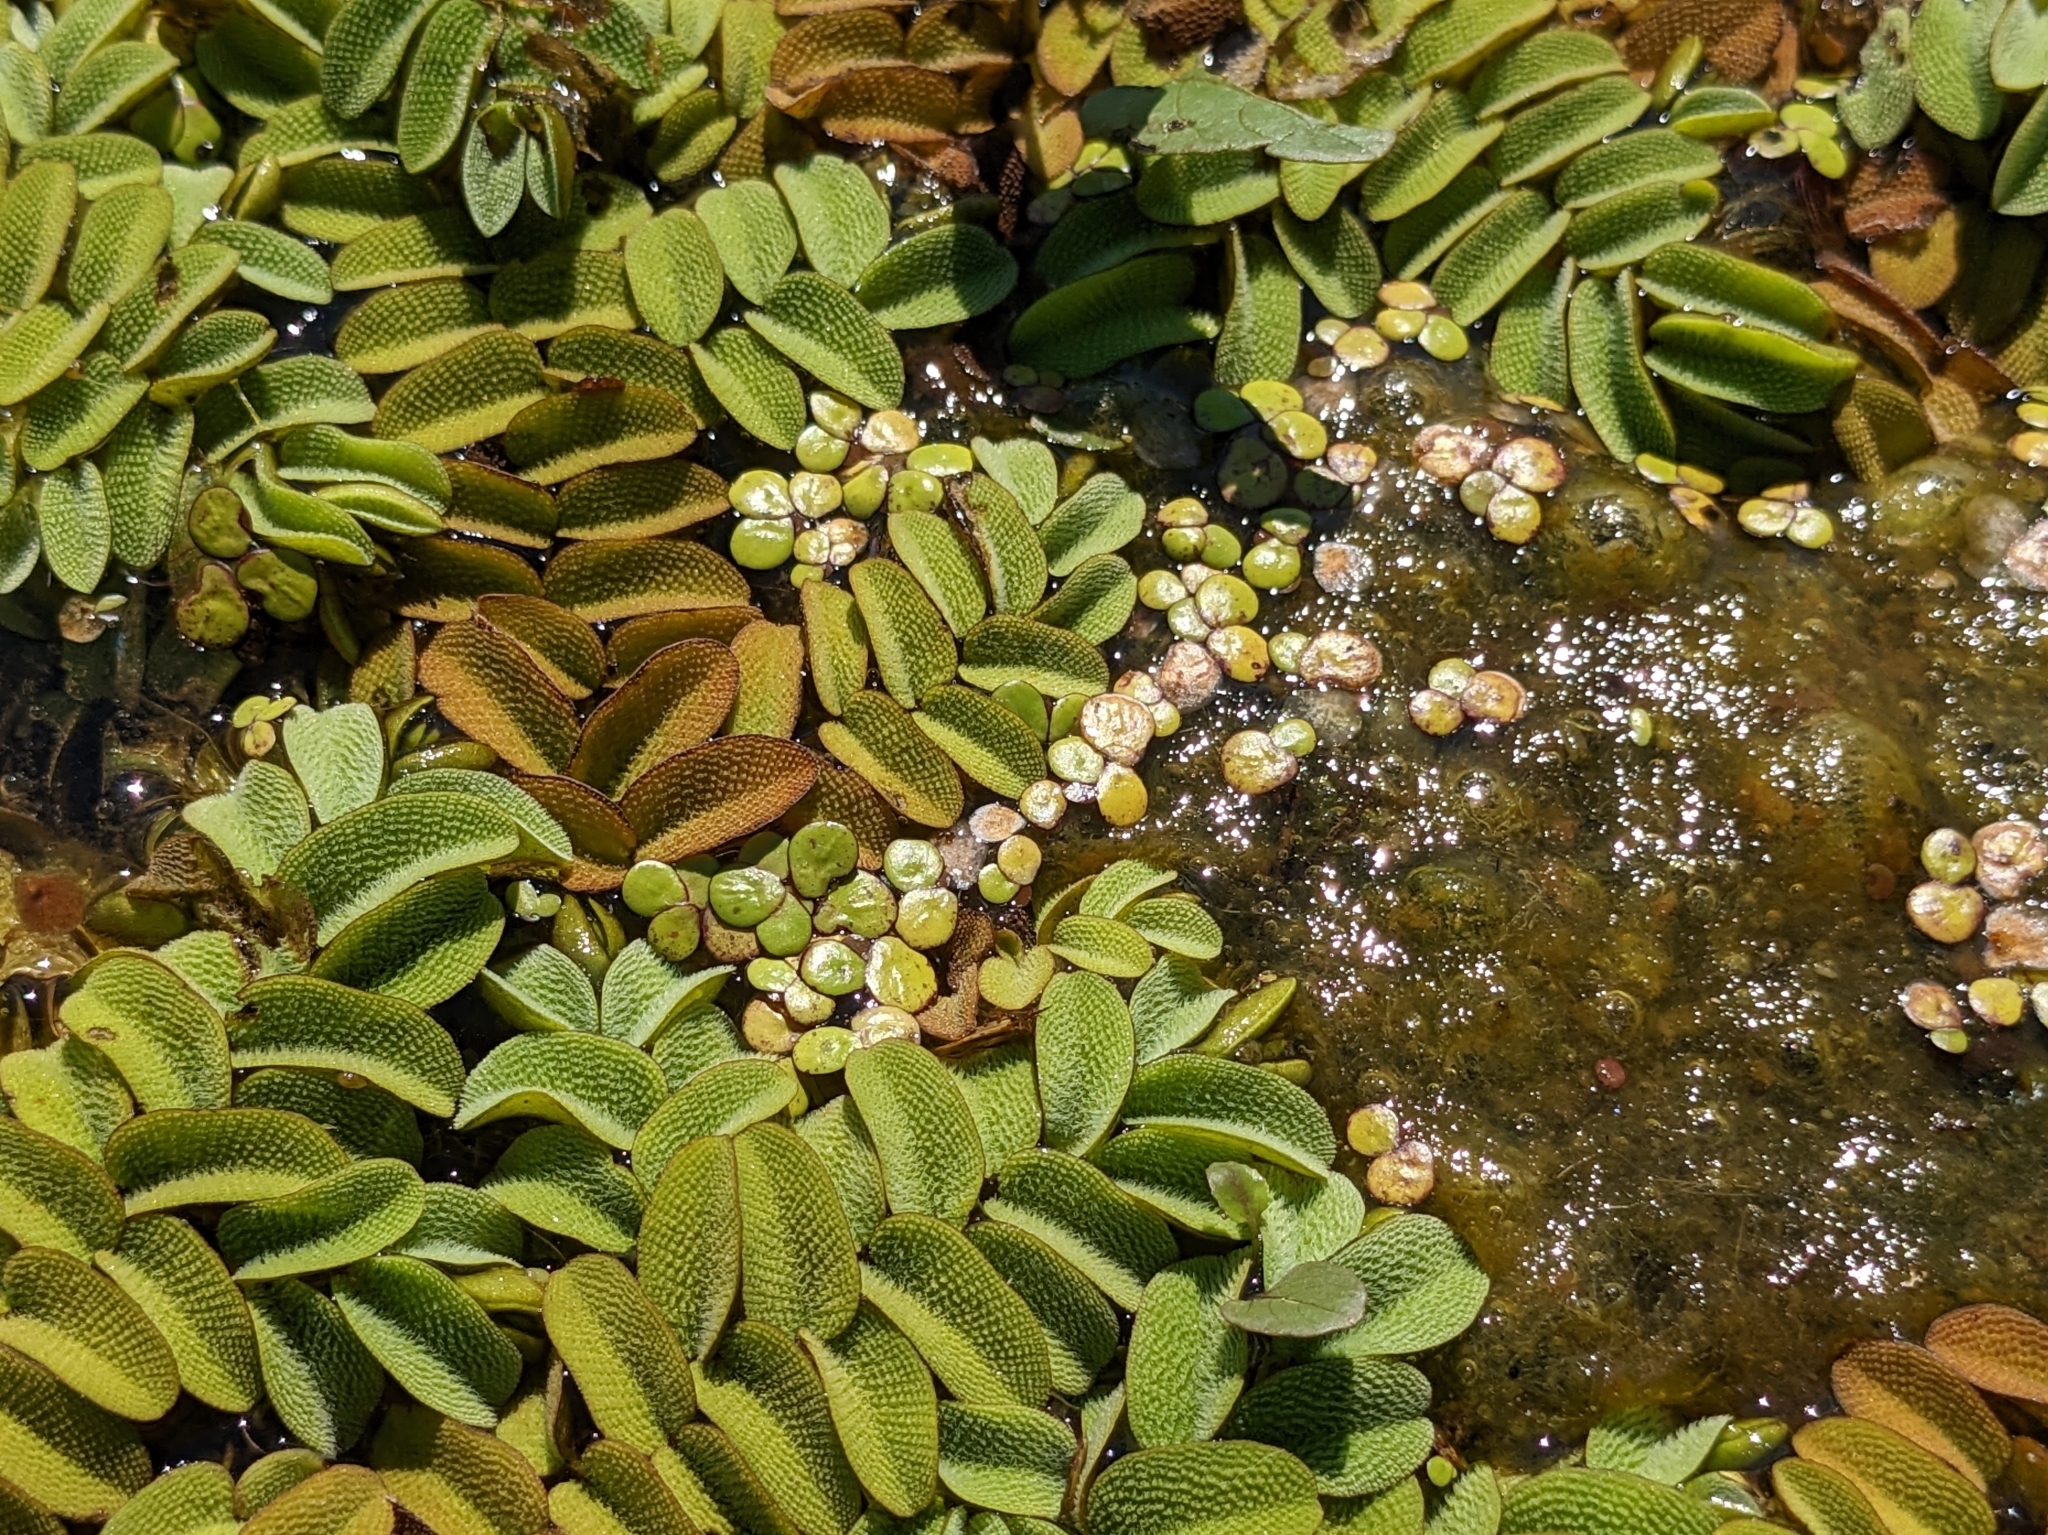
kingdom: Plantae
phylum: Tracheophyta
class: Liliopsida
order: Alismatales
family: Araceae
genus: Spirodela
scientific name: Spirodela polyrhiza
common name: Great duckweed
